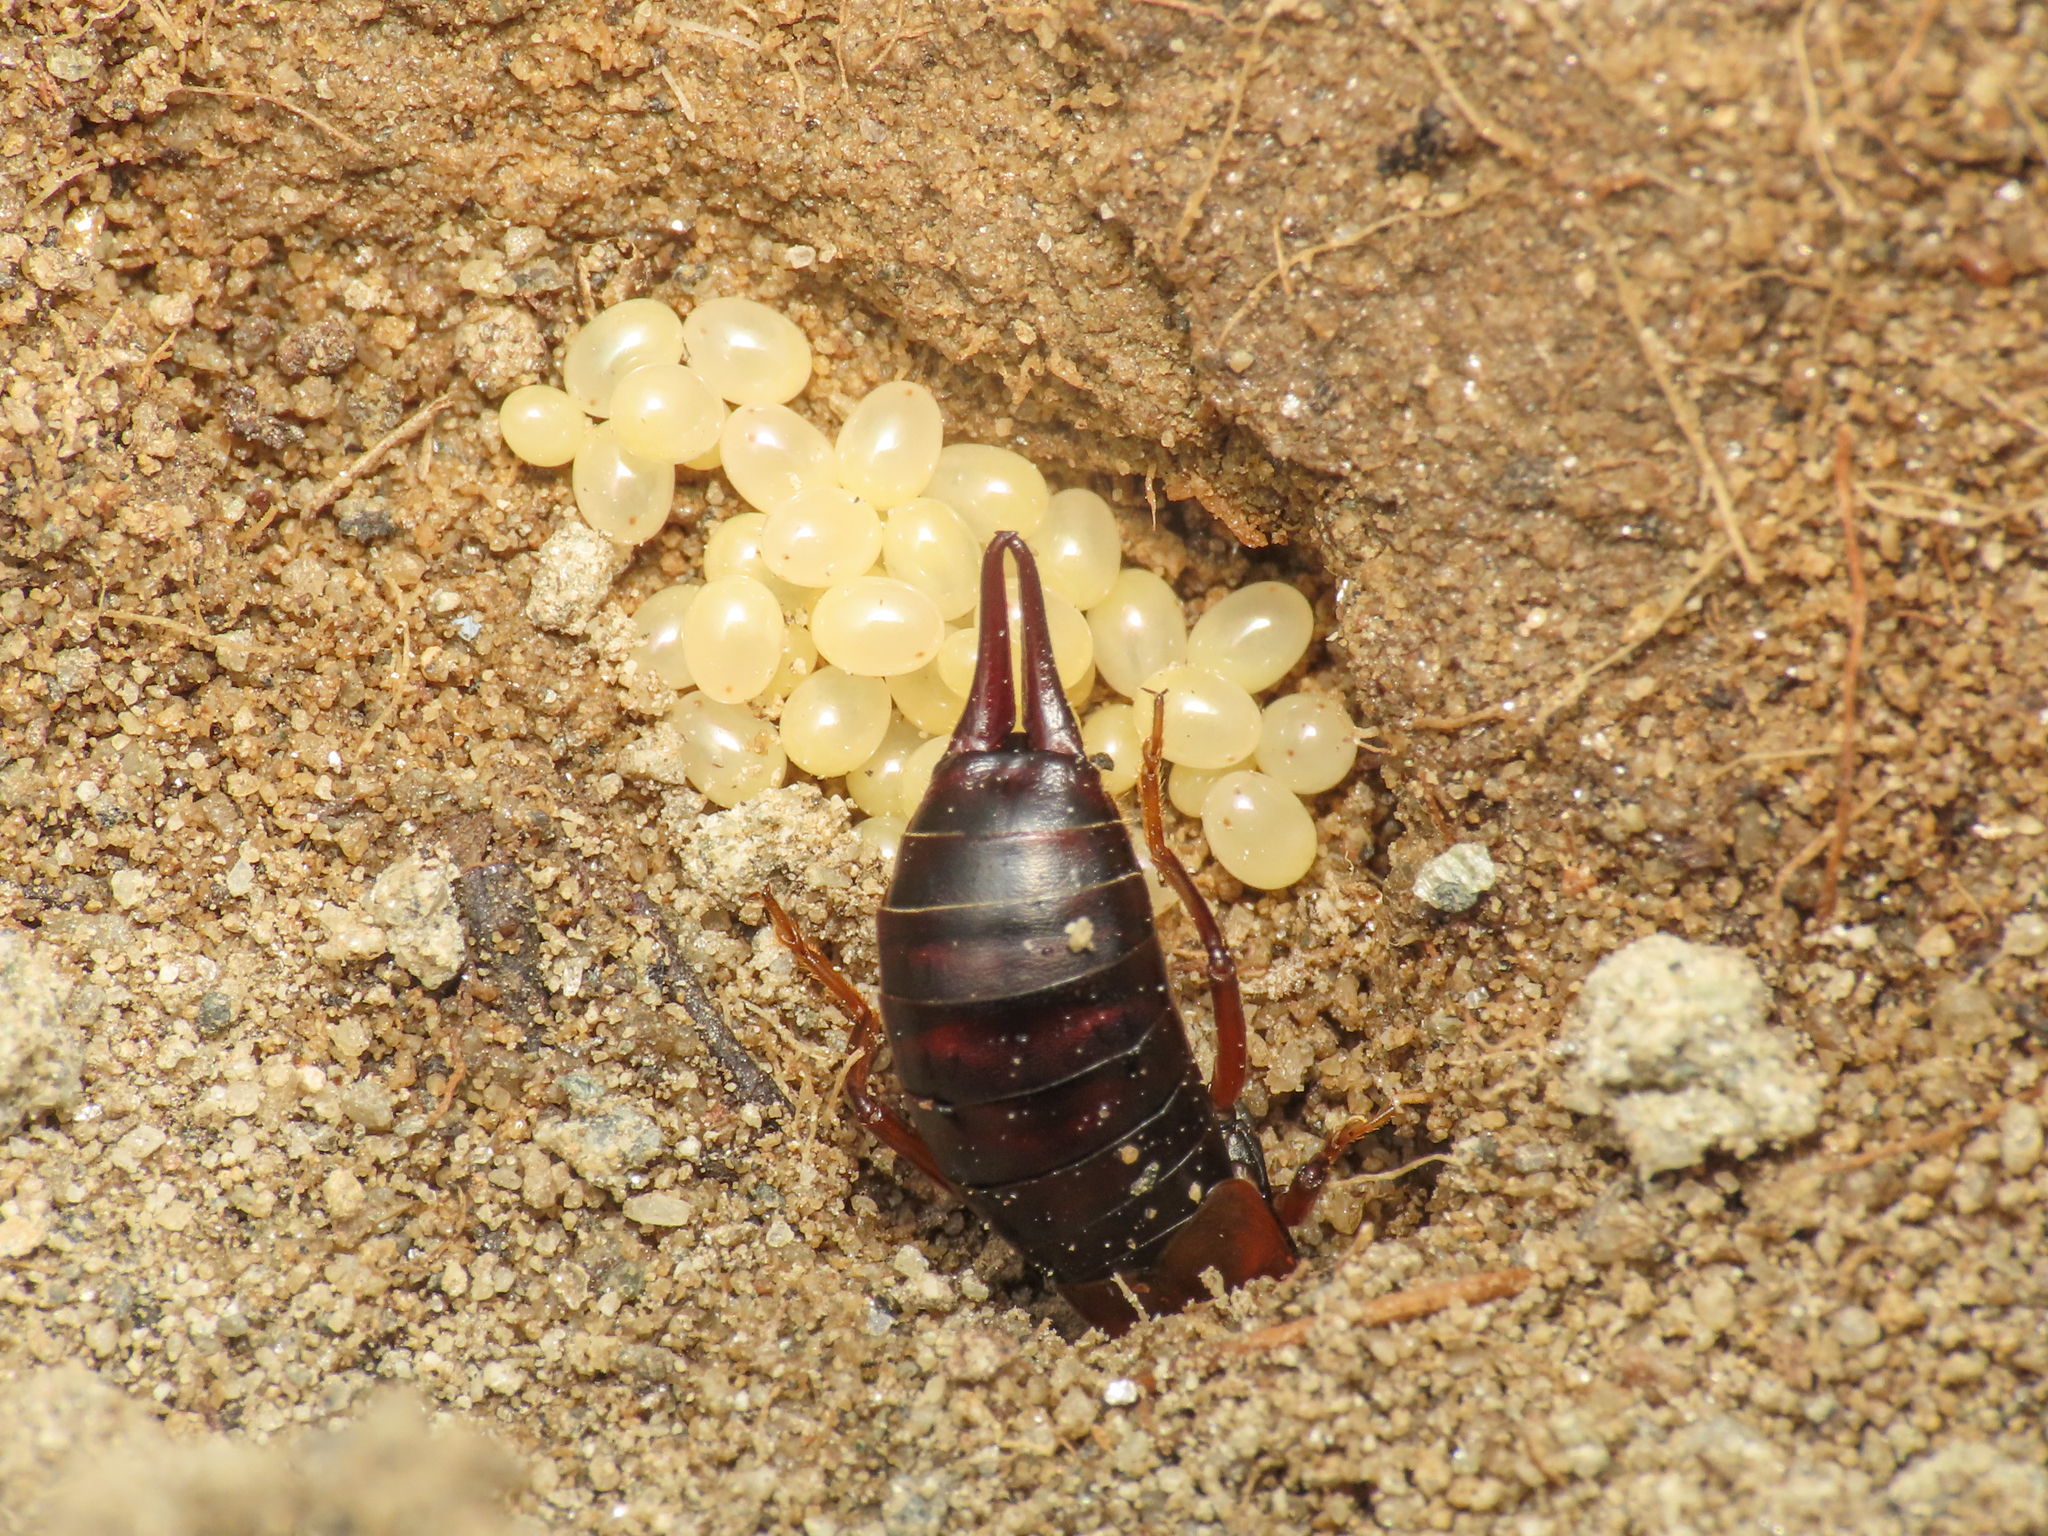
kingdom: Animalia
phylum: Arthropoda
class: Insecta
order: Dermaptera
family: Forficulidae
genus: Pseudochelidura
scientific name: Pseudochelidura
